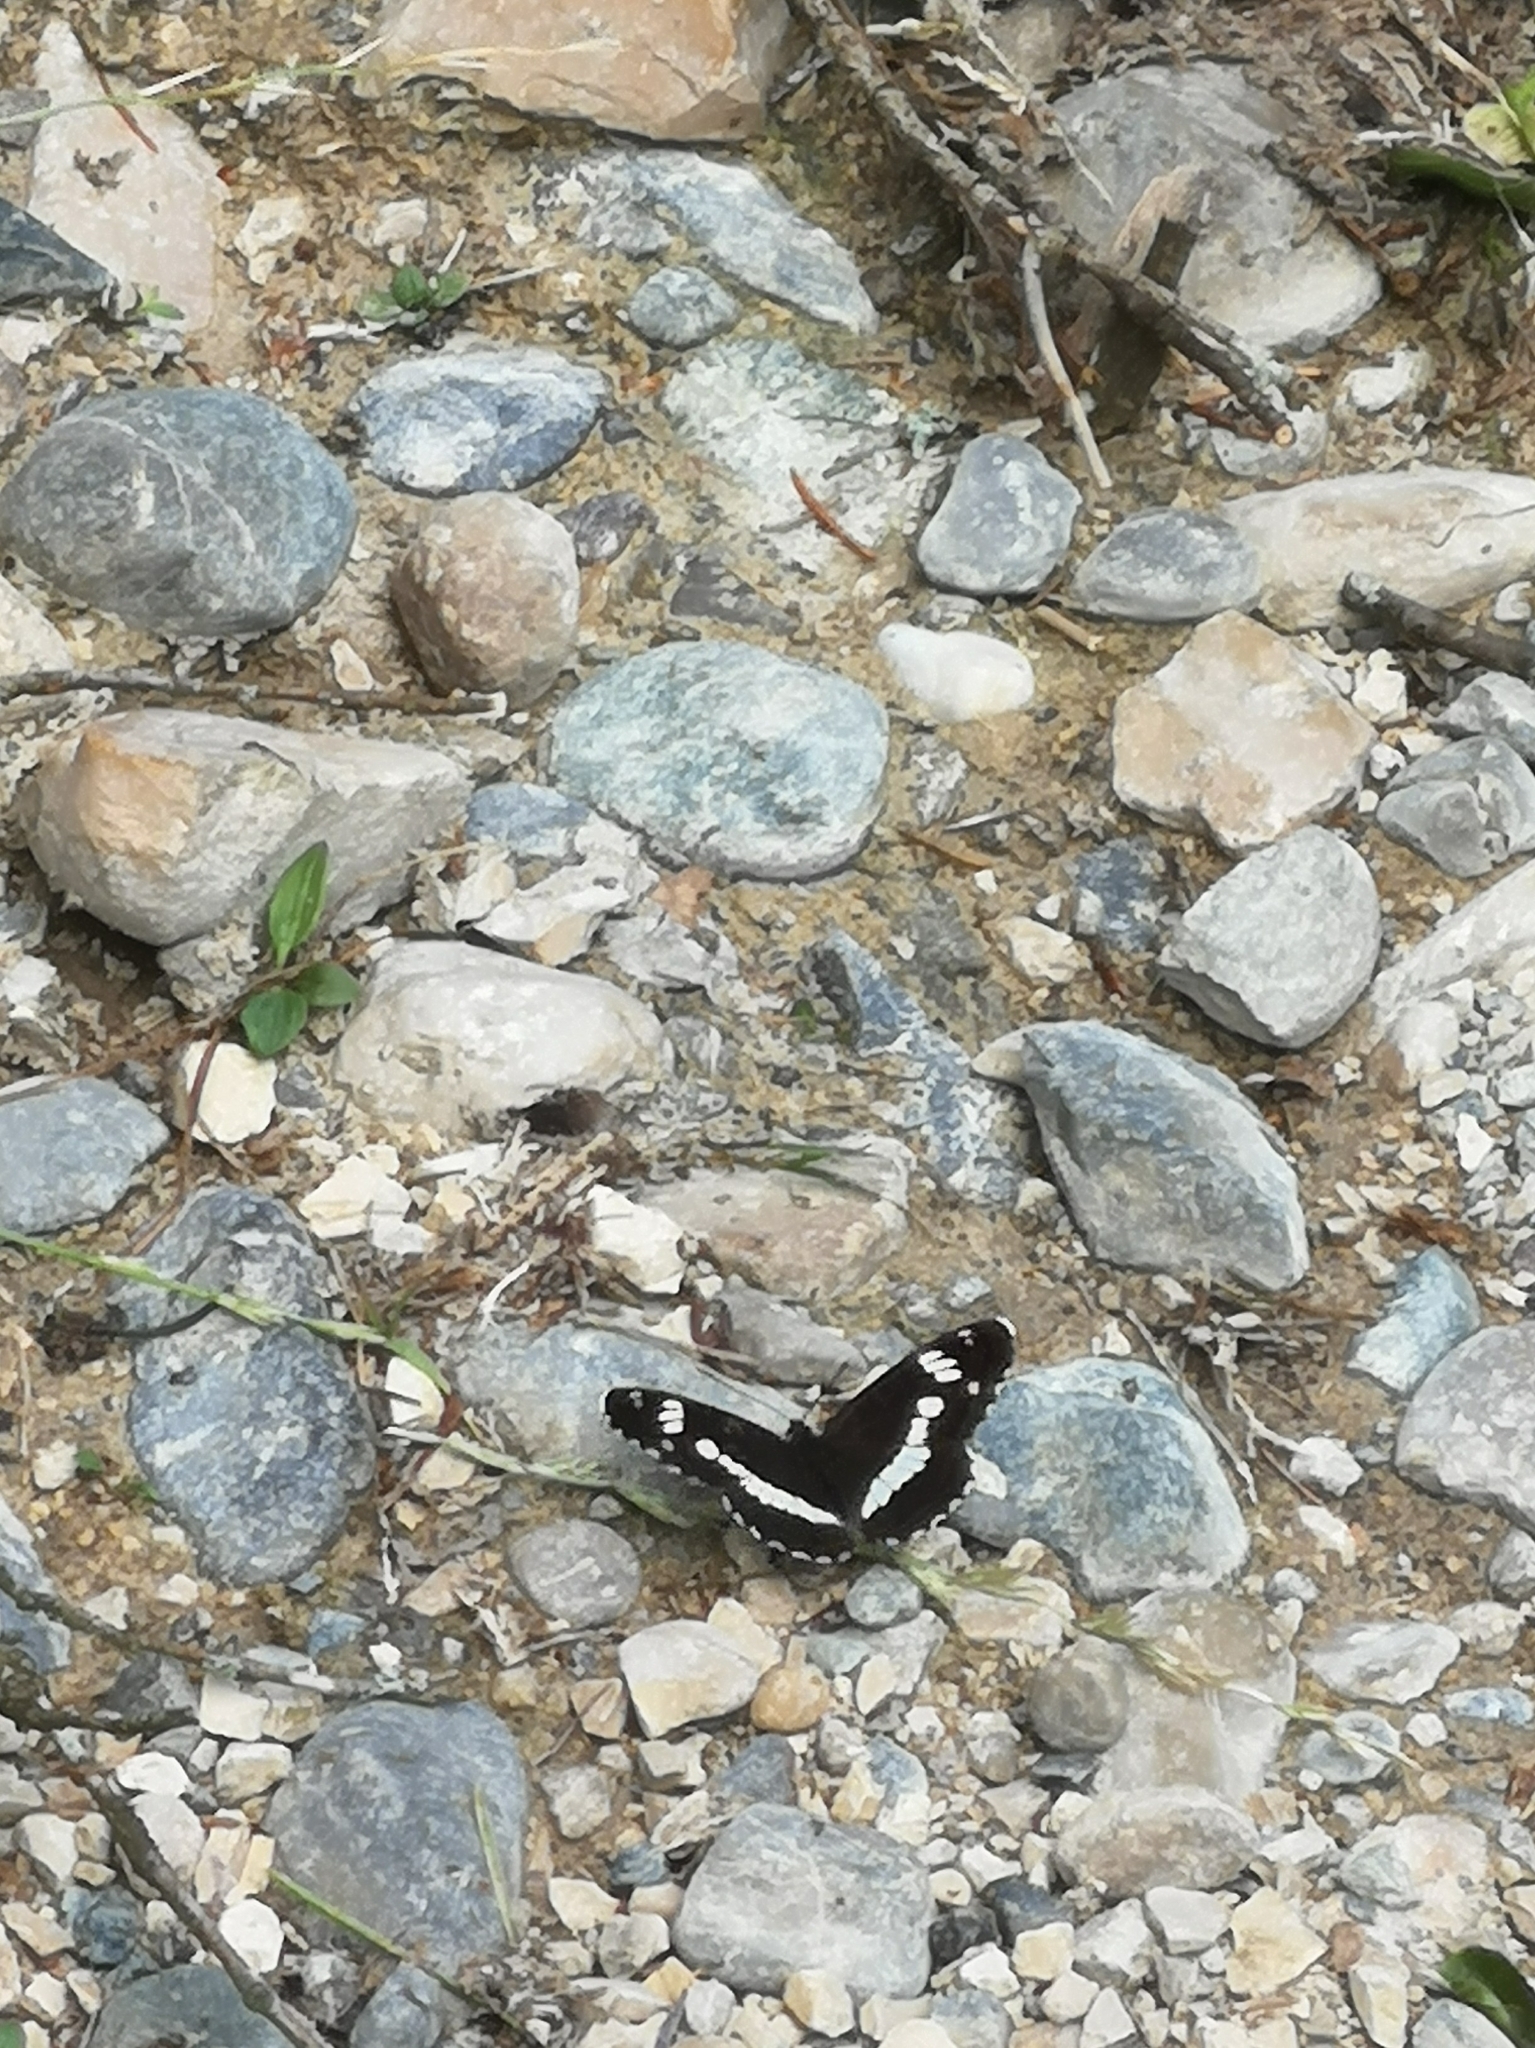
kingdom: Animalia
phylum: Arthropoda
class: Insecta
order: Lepidoptera
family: Nymphalidae
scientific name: Nymphalidae
